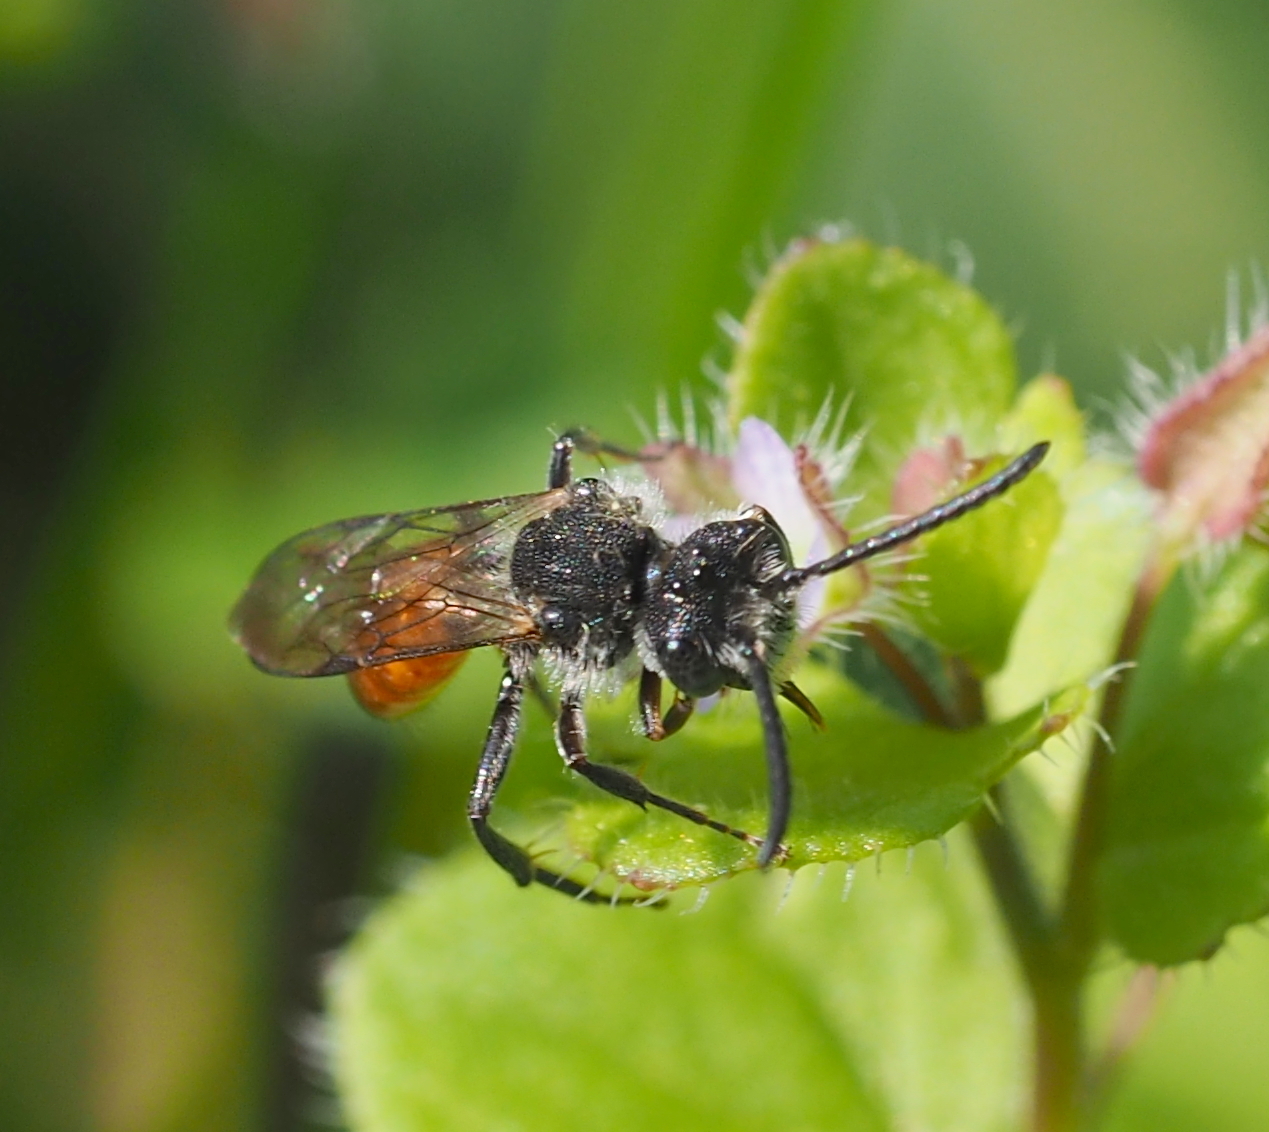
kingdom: Animalia
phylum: Arthropoda
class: Insecta
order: Hymenoptera
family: Apidae
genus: Nomada
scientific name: Nomada fabriciana
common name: Fabricius' nomad bee
